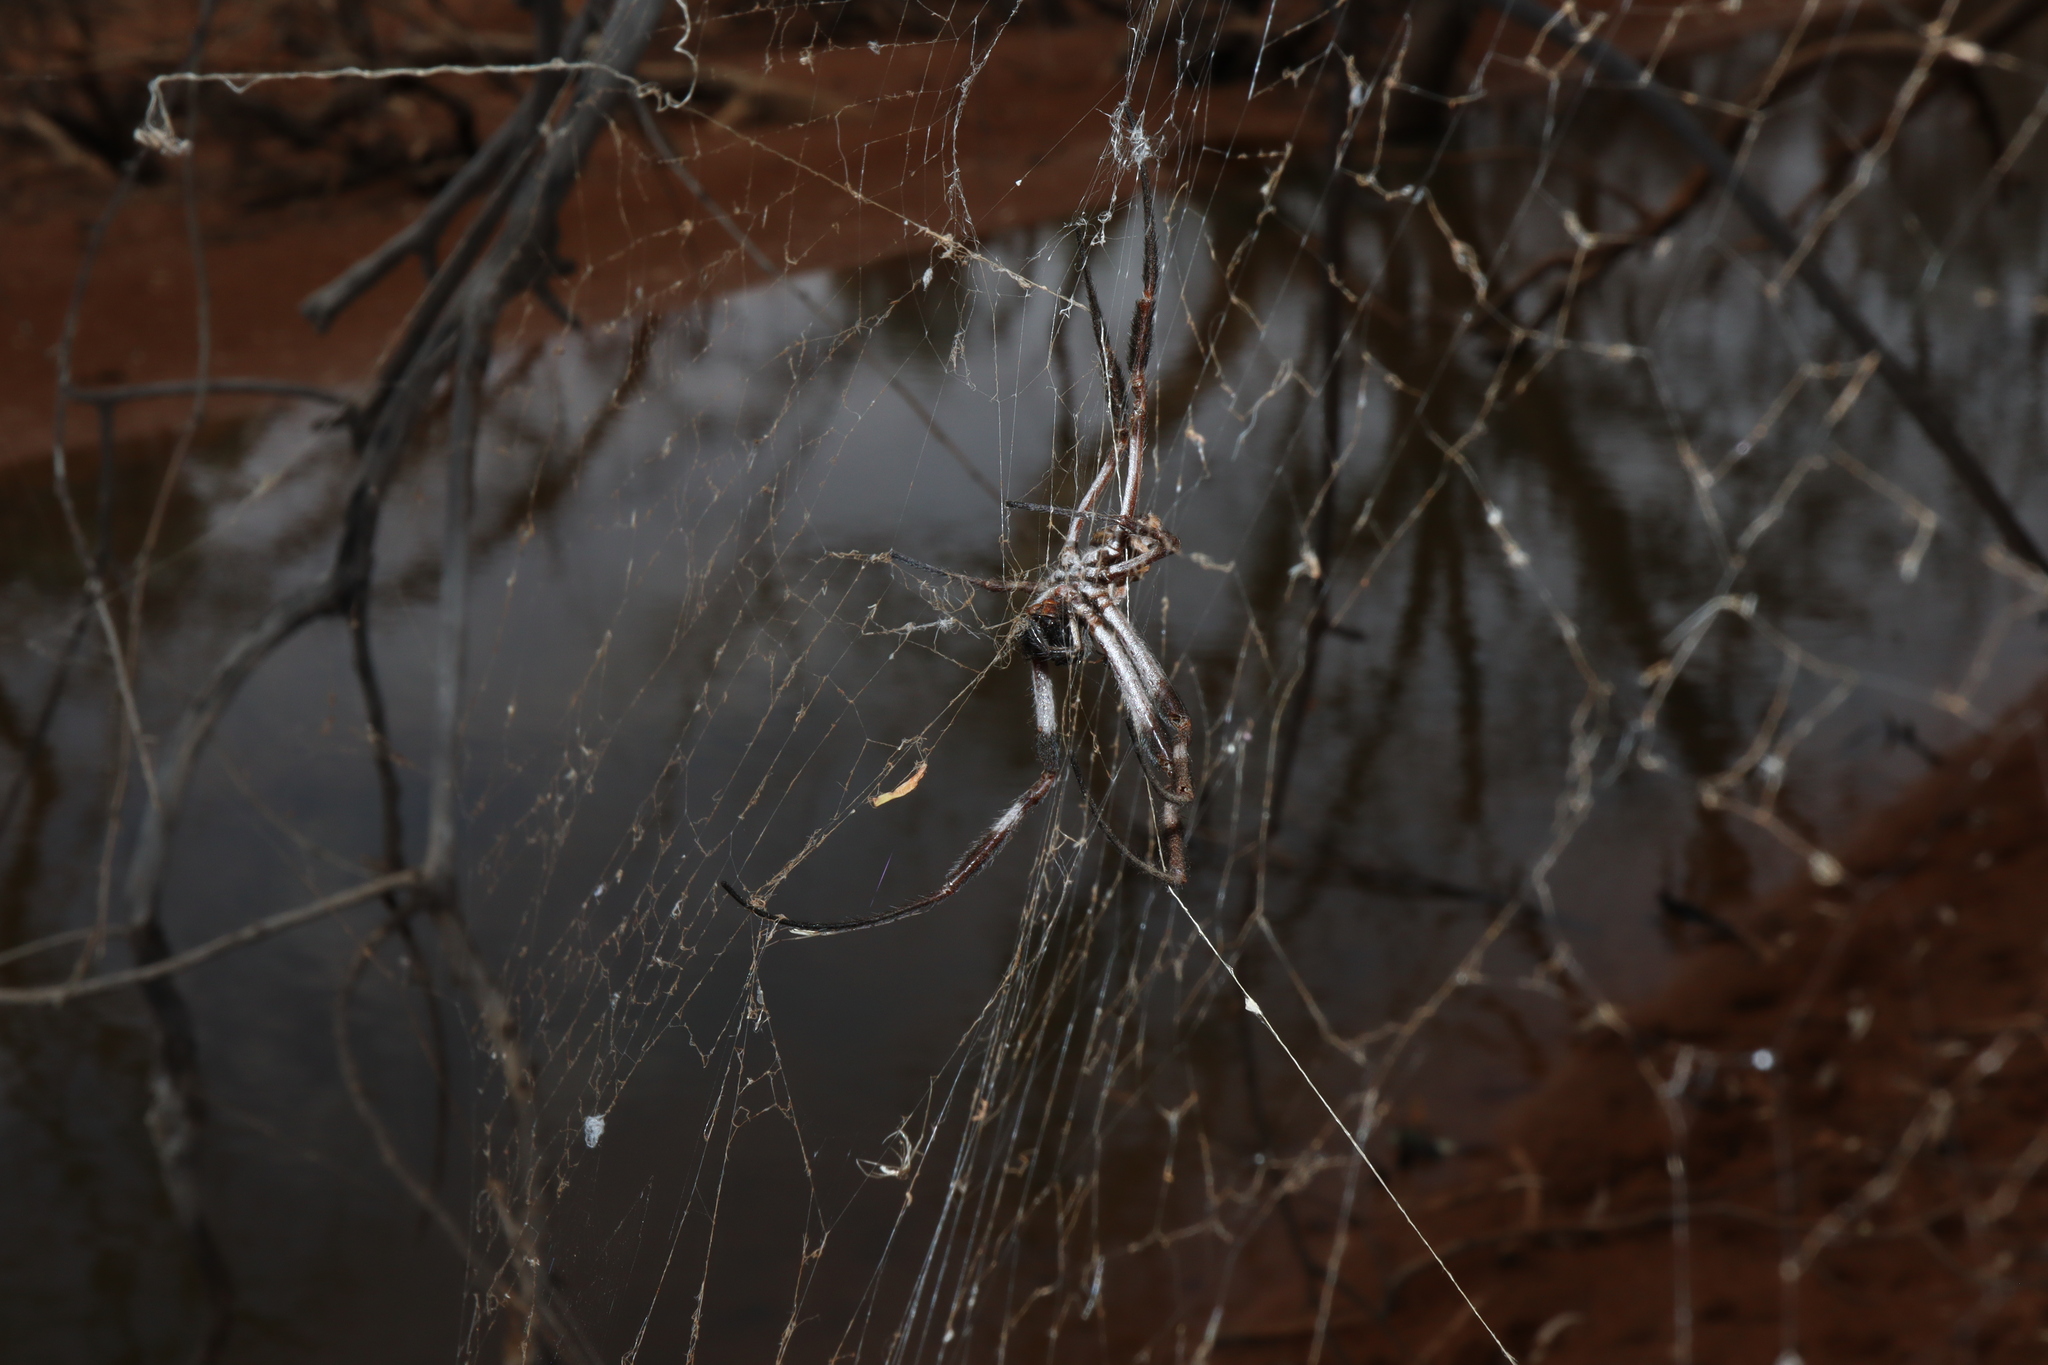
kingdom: Animalia
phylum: Arthropoda
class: Arachnida
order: Araneae
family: Araneidae
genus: Trichonephila
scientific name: Trichonephila edulis
